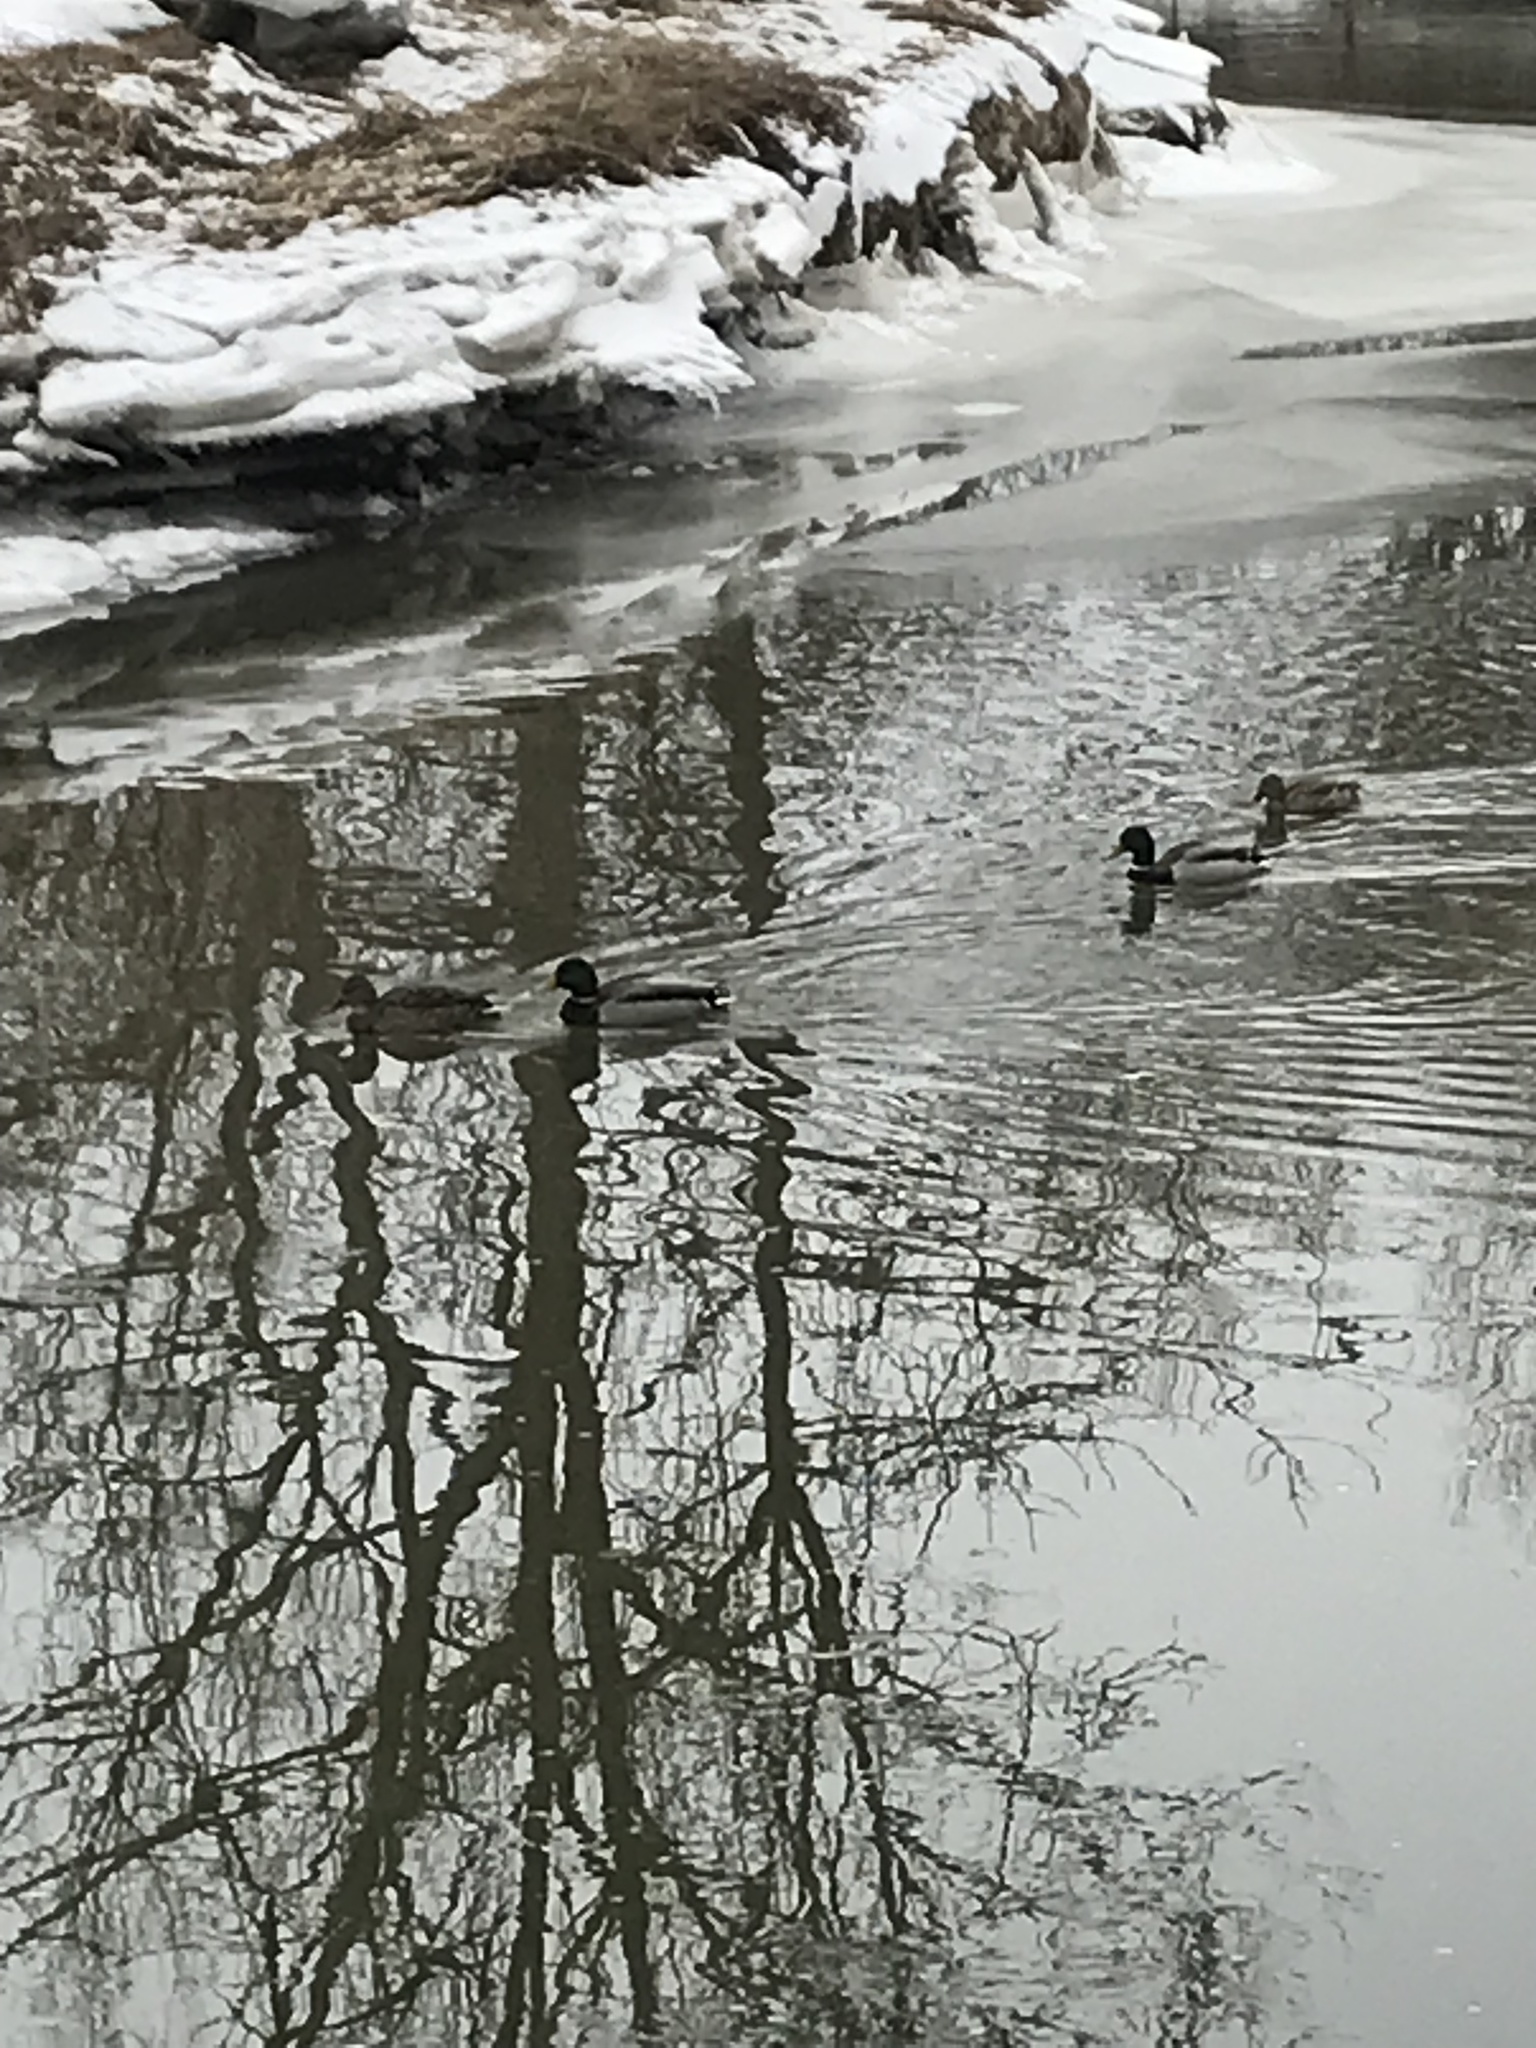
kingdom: Animalia
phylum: Chordata
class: Aves
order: Anseriformes
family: Anatidae
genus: Anas
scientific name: Anas platyrhynchos
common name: Mallard
